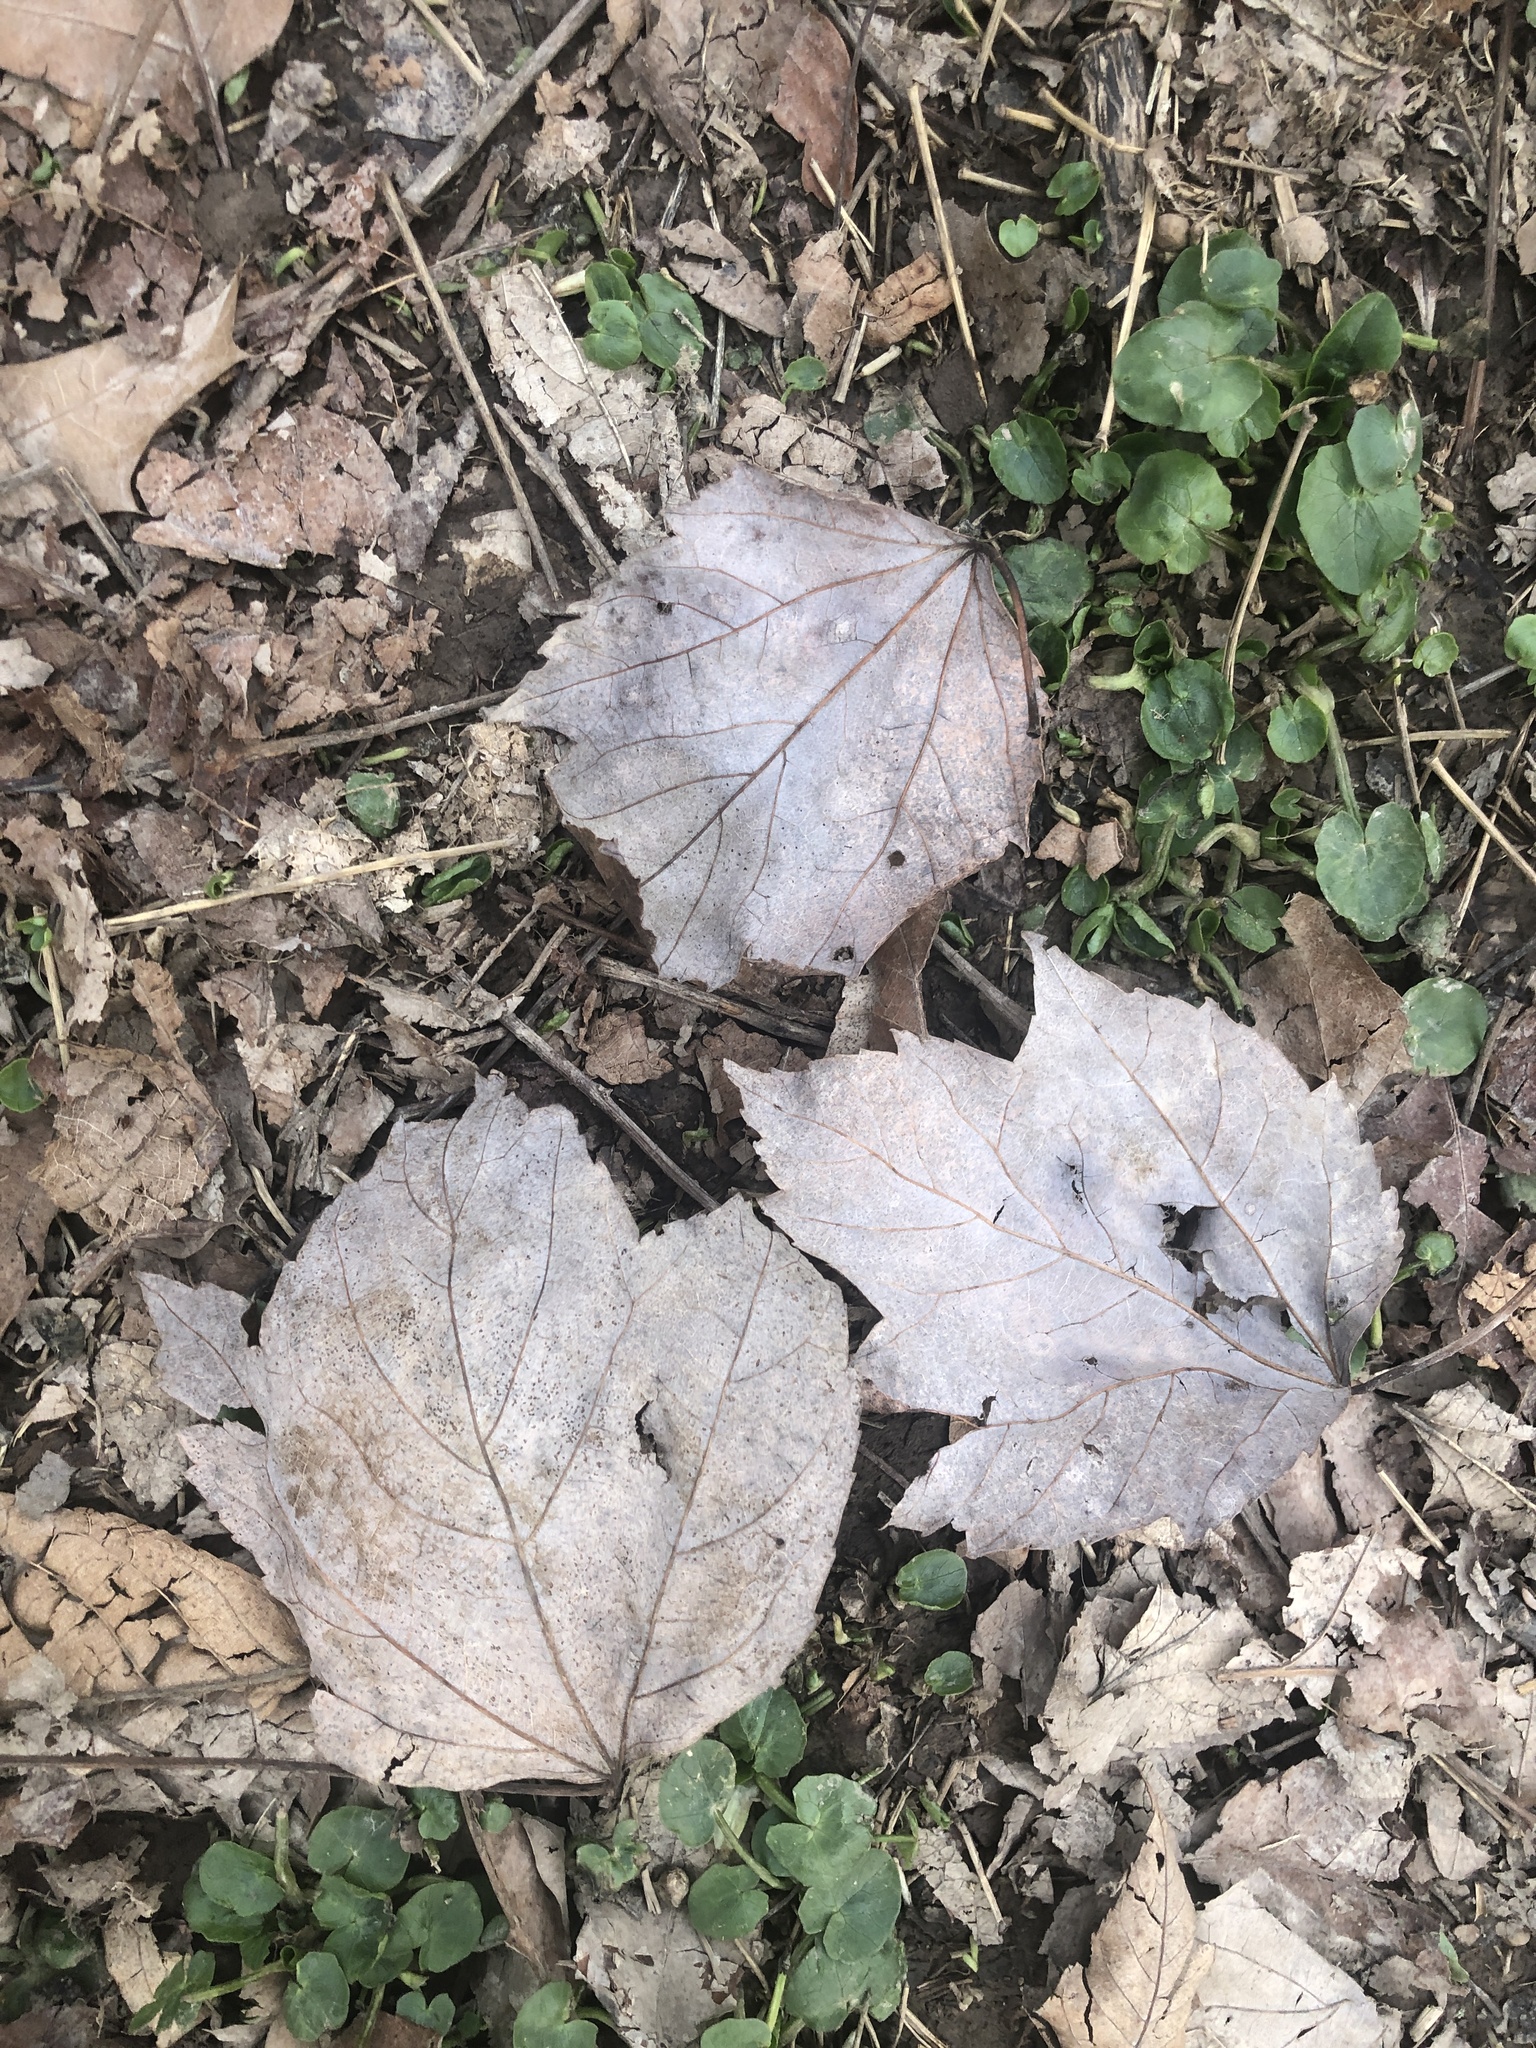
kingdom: Plantae
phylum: Tracheophyta
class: Magnoliopsida
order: Sapindales
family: Sapindaceae
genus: Acer
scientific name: Acer rubrum
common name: Red maple
